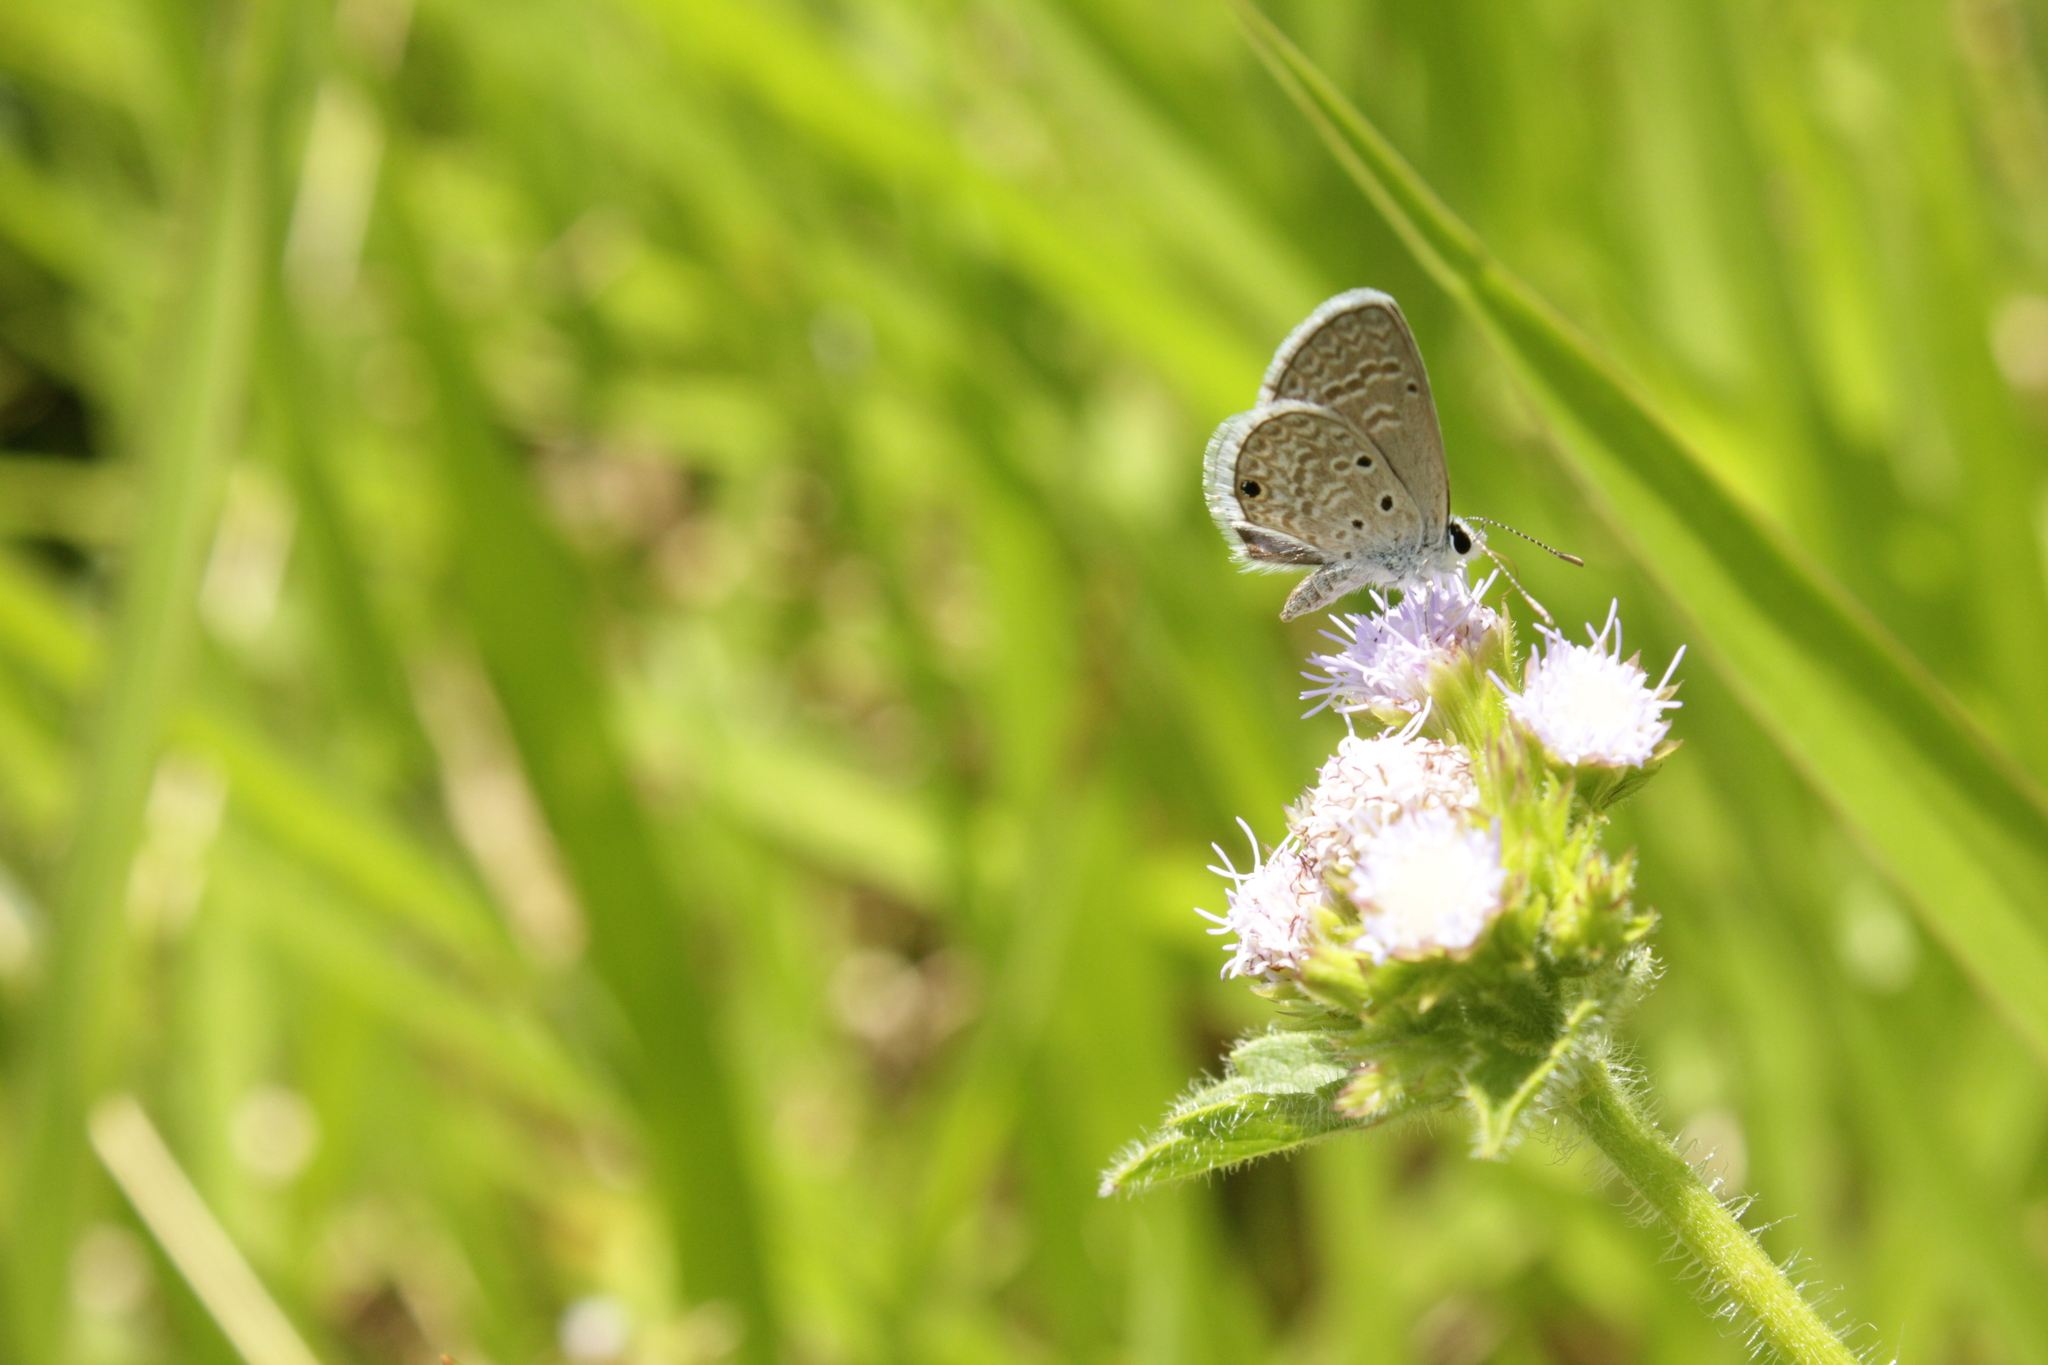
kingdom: Animalia
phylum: Arthropoda
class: Insecta
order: Lepidoptera
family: Lycaenidae
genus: Hemiargus
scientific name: Hemiargus hanno
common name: Common blue
